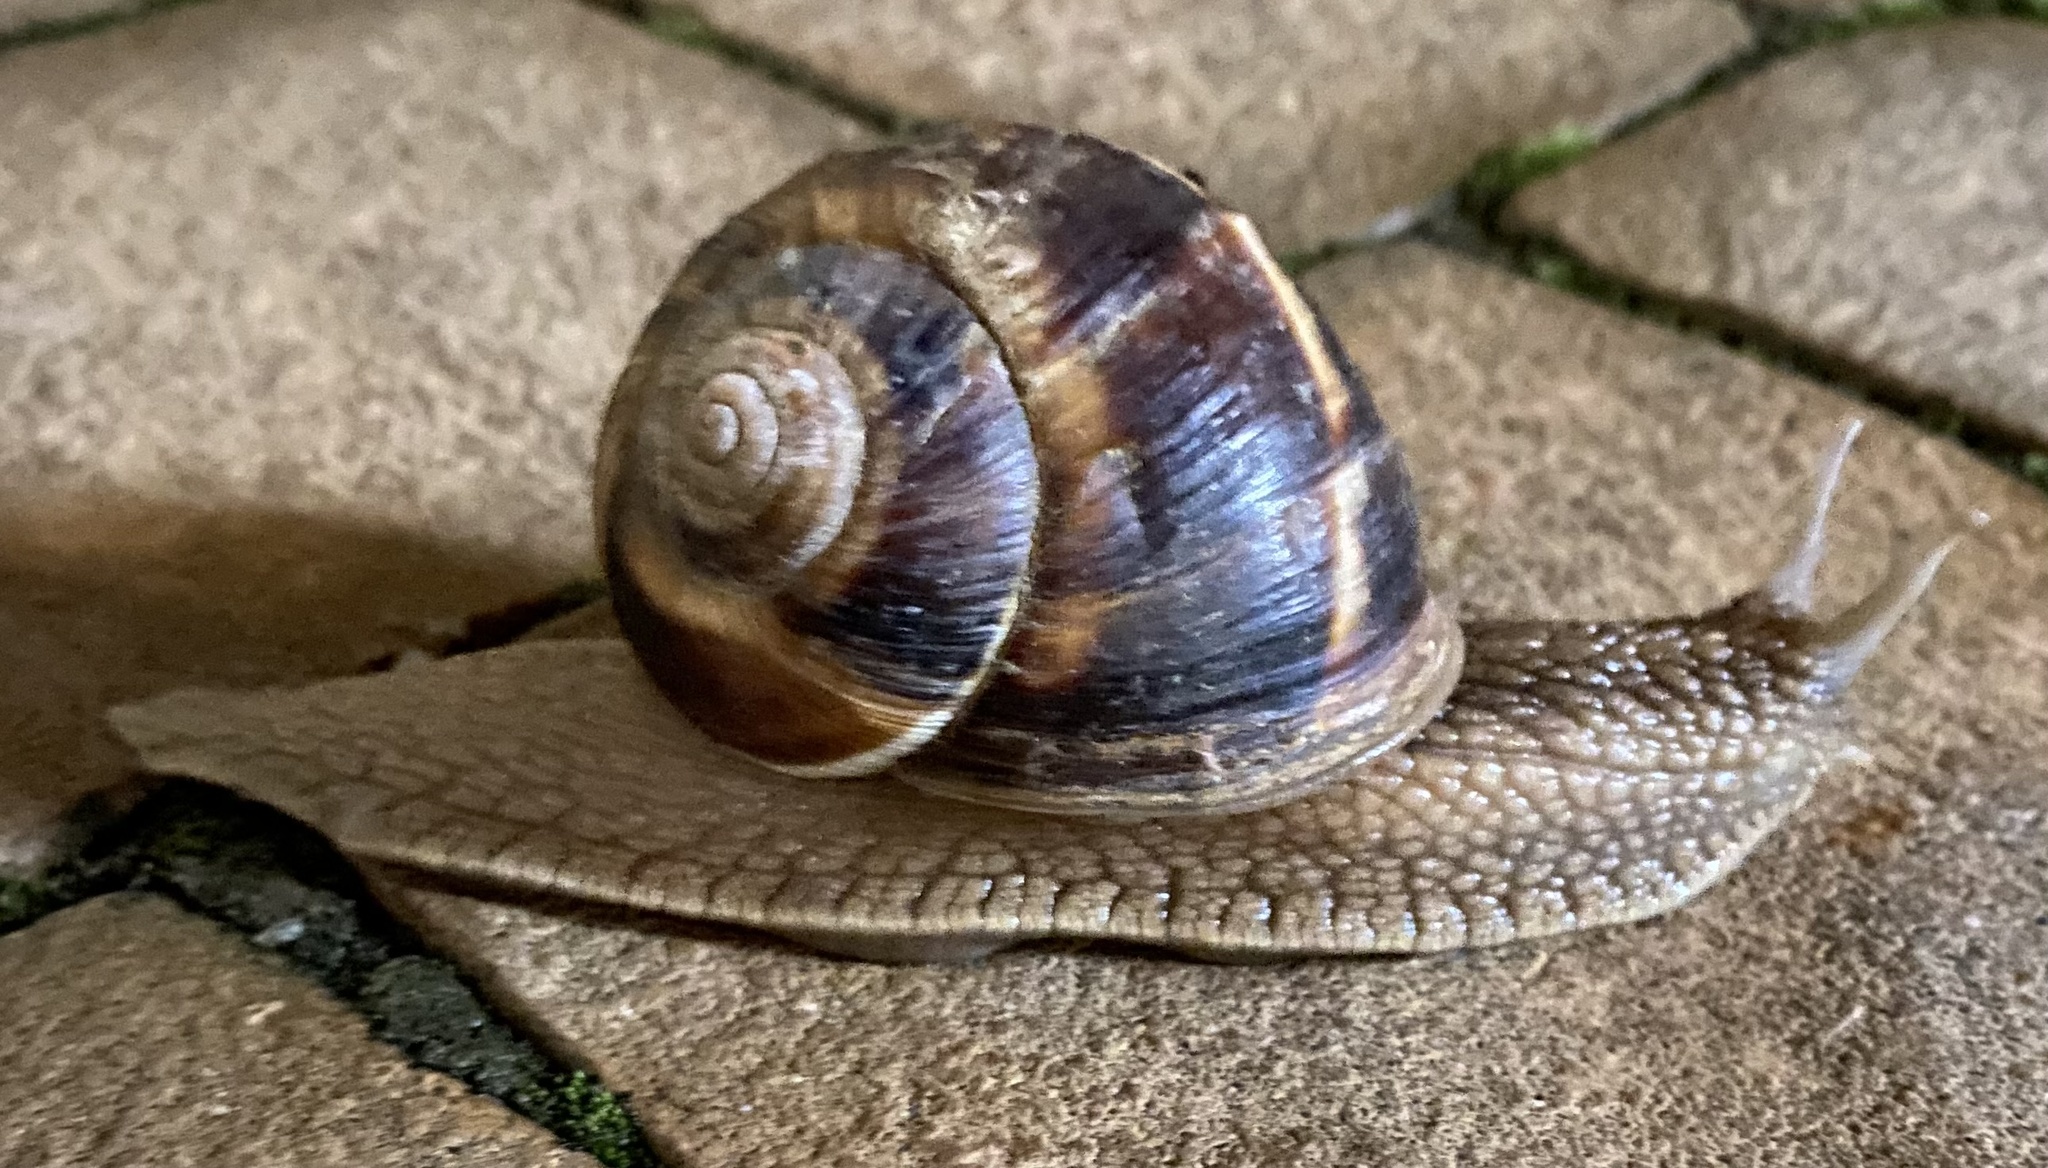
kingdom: Animalia
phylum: Mollusca
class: Gastropoda
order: Stylommatophora
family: Helicidae
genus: Helix
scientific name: Helix lucorum
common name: Turkish snail
